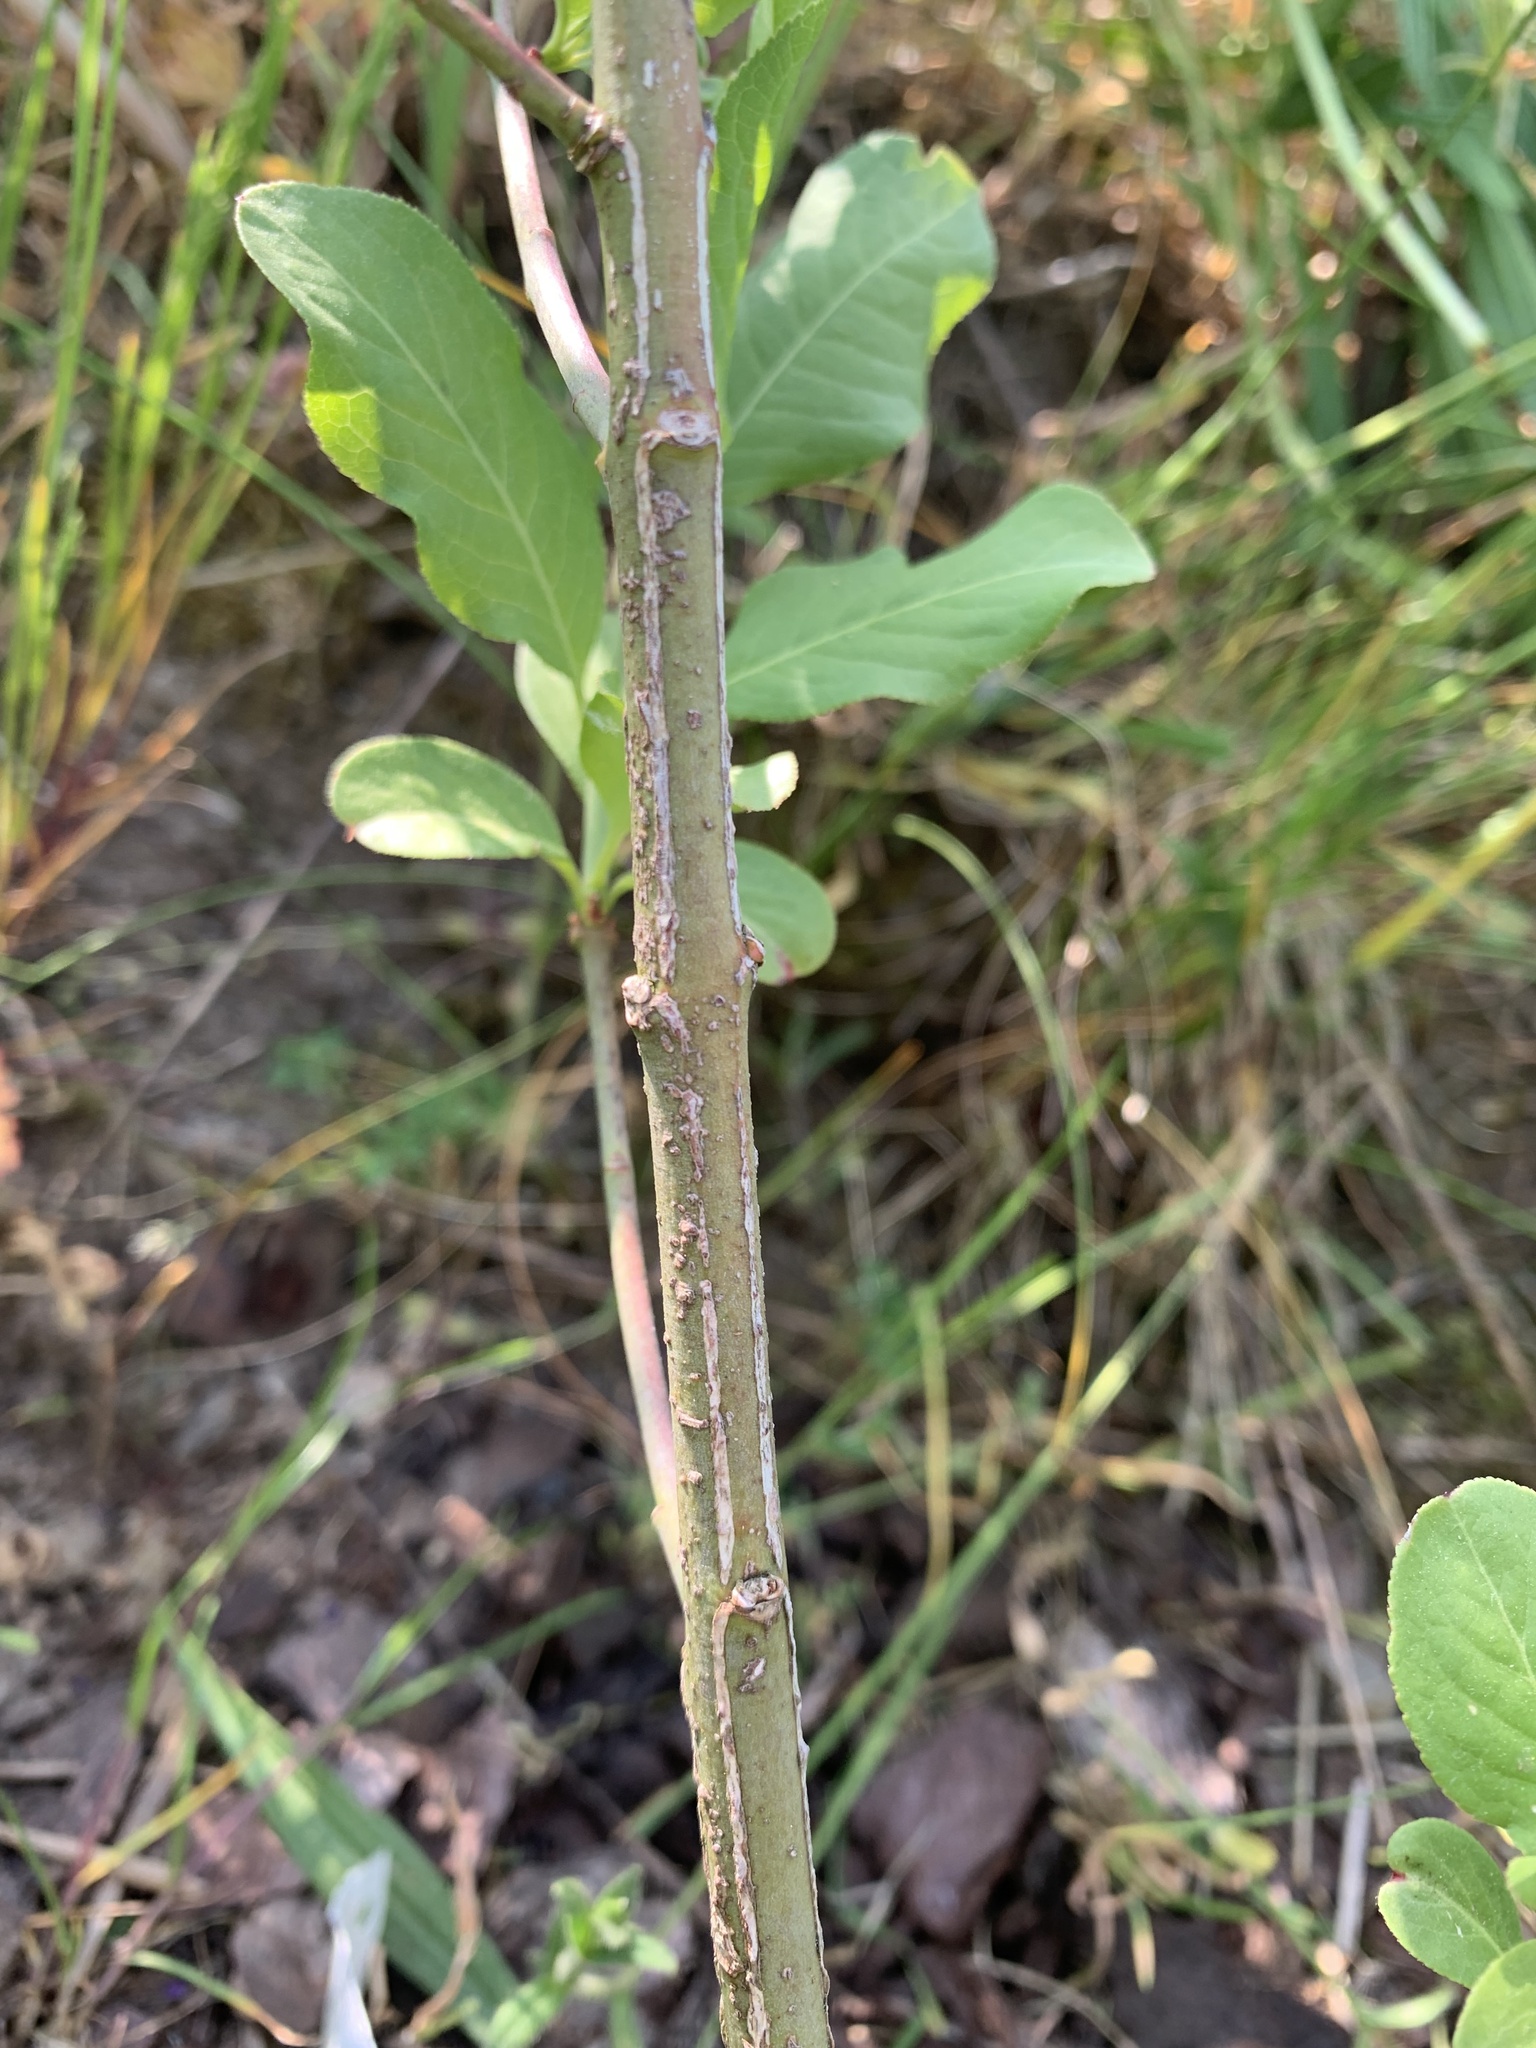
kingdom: Plantae
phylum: Tracheophyta
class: Magnoliopsida
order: Celastrales
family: Celastraceae
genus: Euonymus
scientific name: Euonymus europaeus
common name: Spindle
